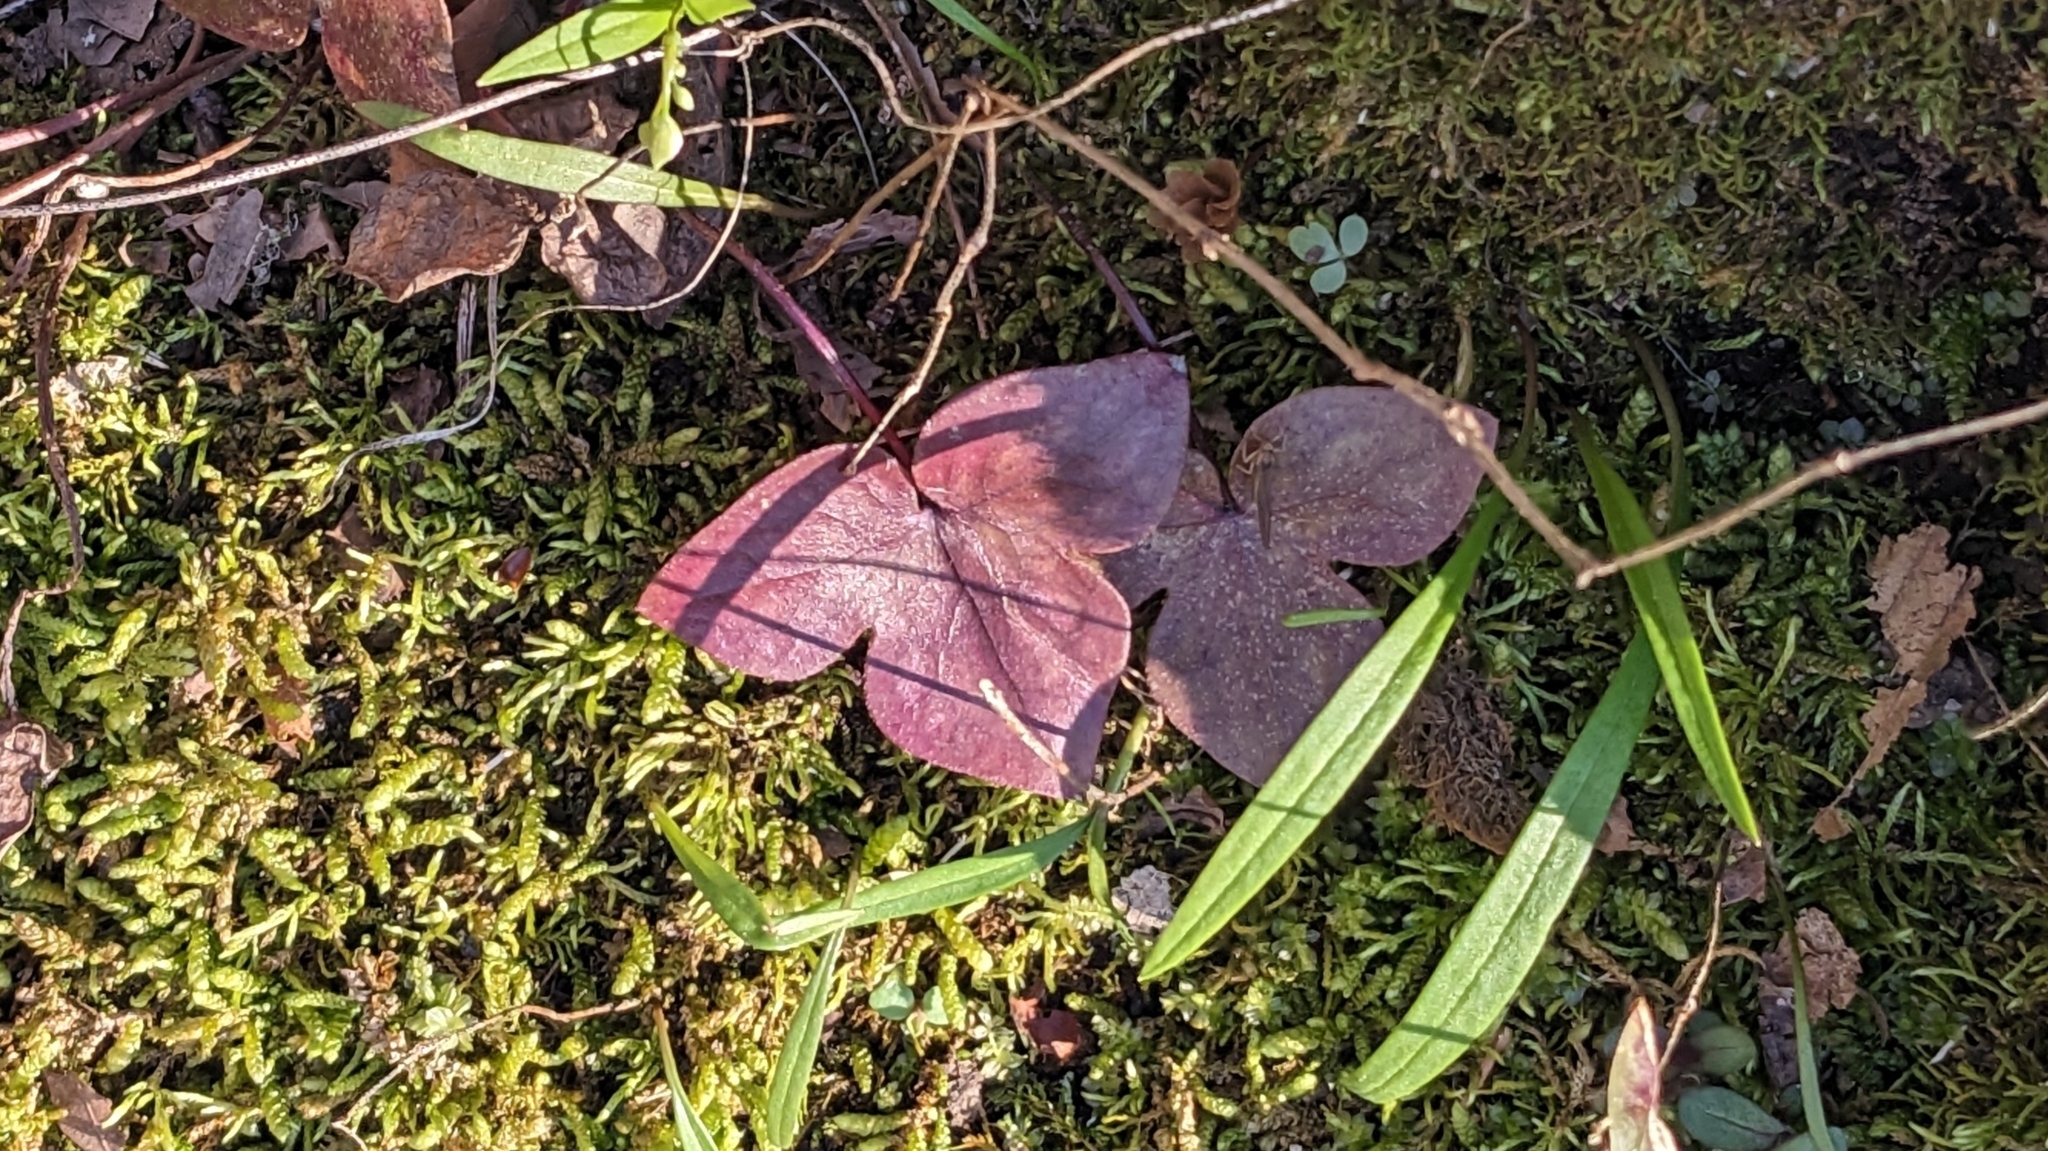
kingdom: Plantae
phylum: Tracheophyta
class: Magnoliopsida
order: Ranunculales
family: Ranunculaceae
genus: Hepatica
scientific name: Hepatica acutiloba
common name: Sharp-lobed hepatica
